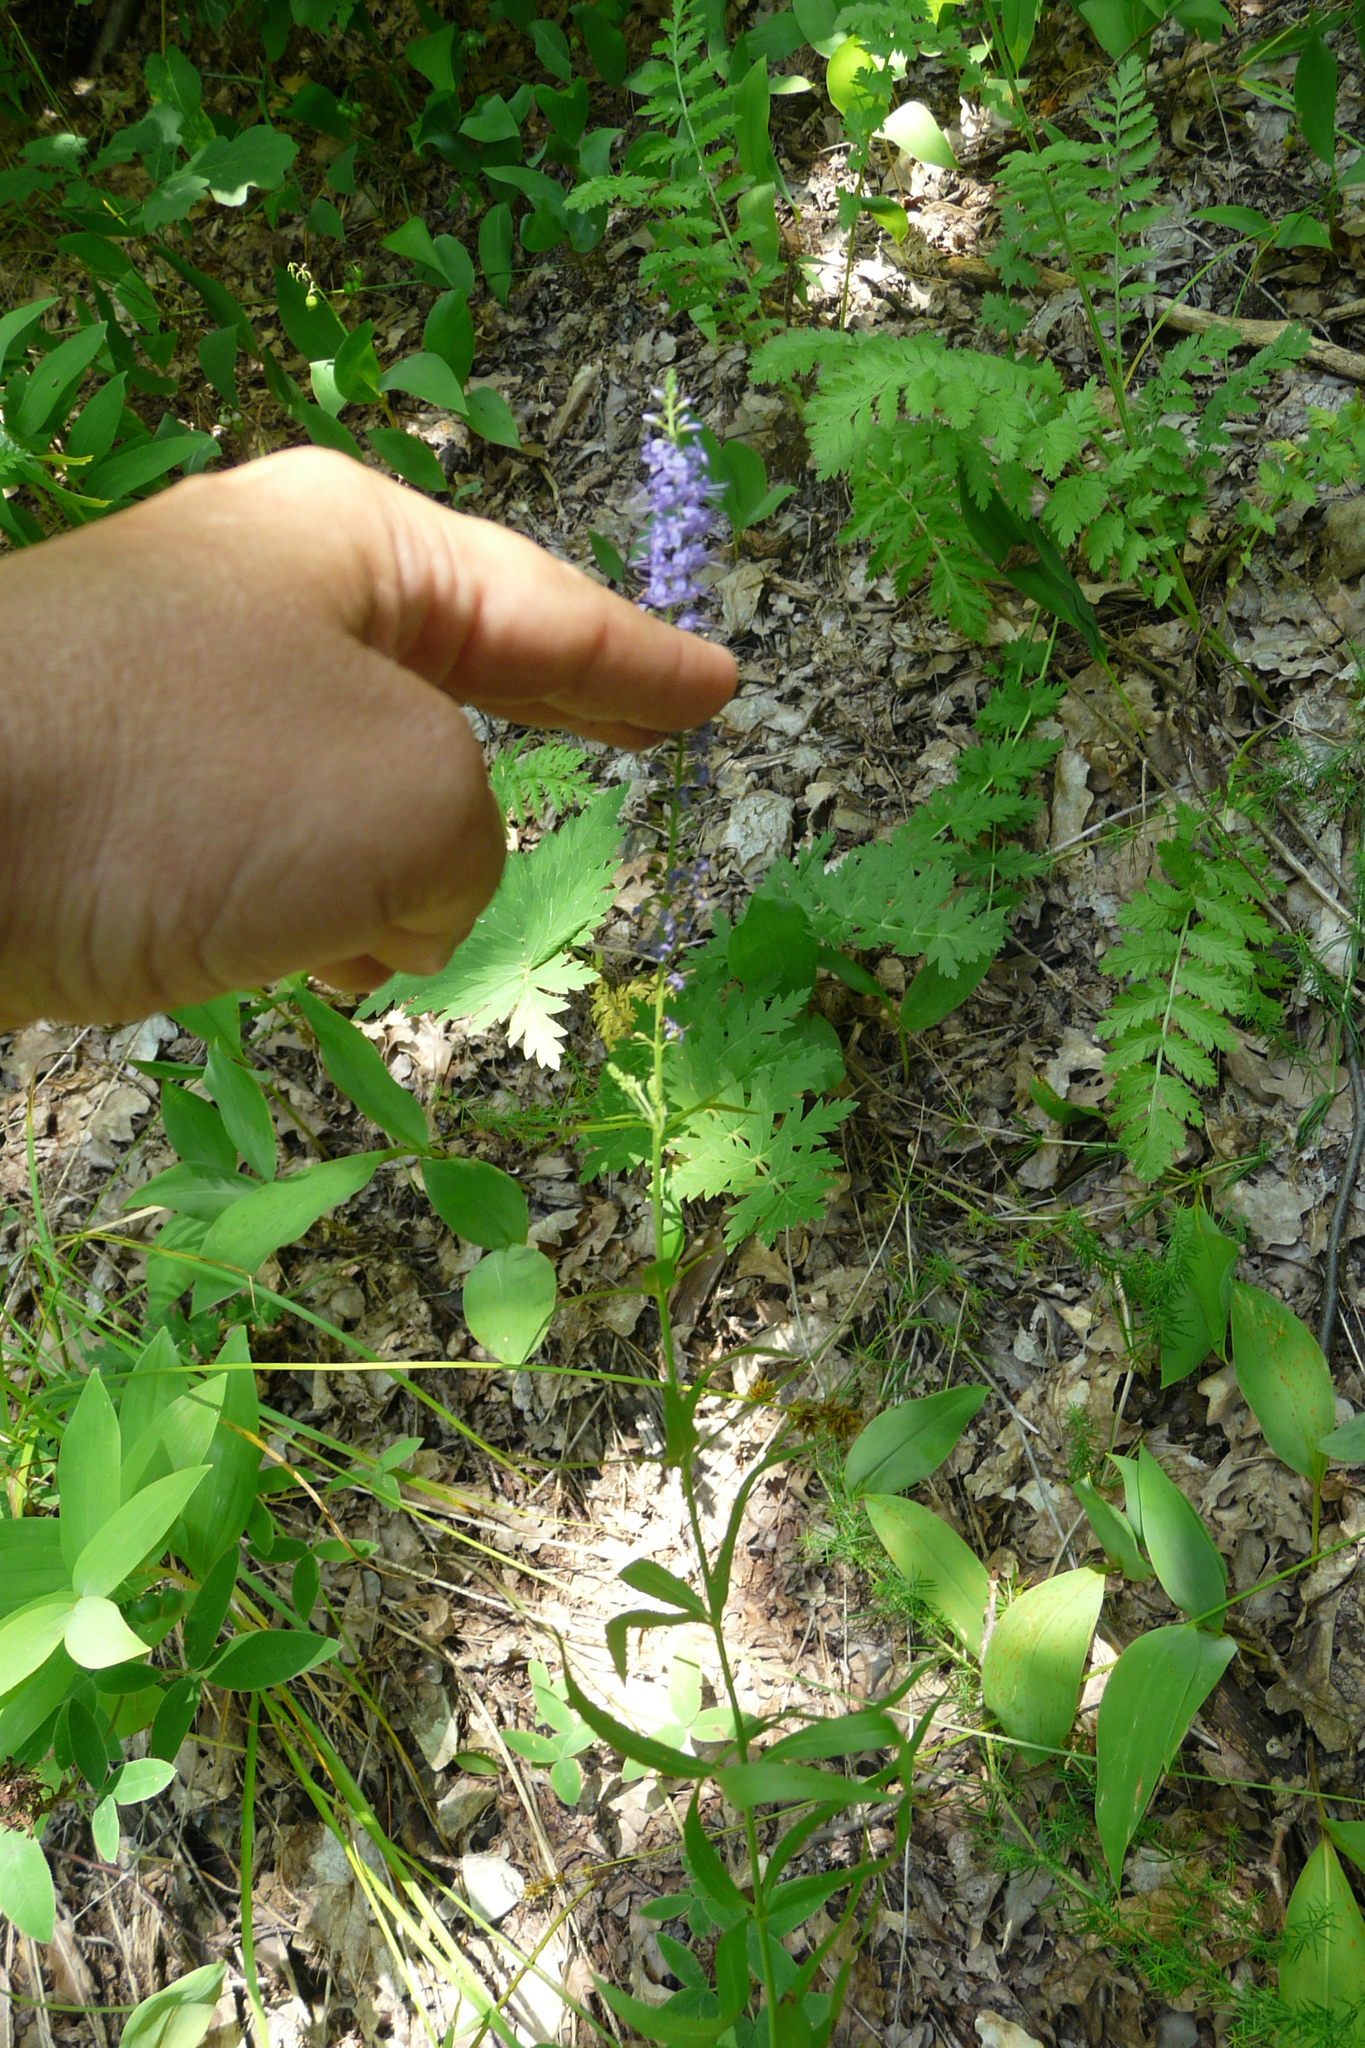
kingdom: Plantae
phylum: Tracheophyta
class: Magnoliopsida
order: Lamiales
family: Plantaginaceae
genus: Veronica
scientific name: Veronica spuria
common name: Bastard speedwell
